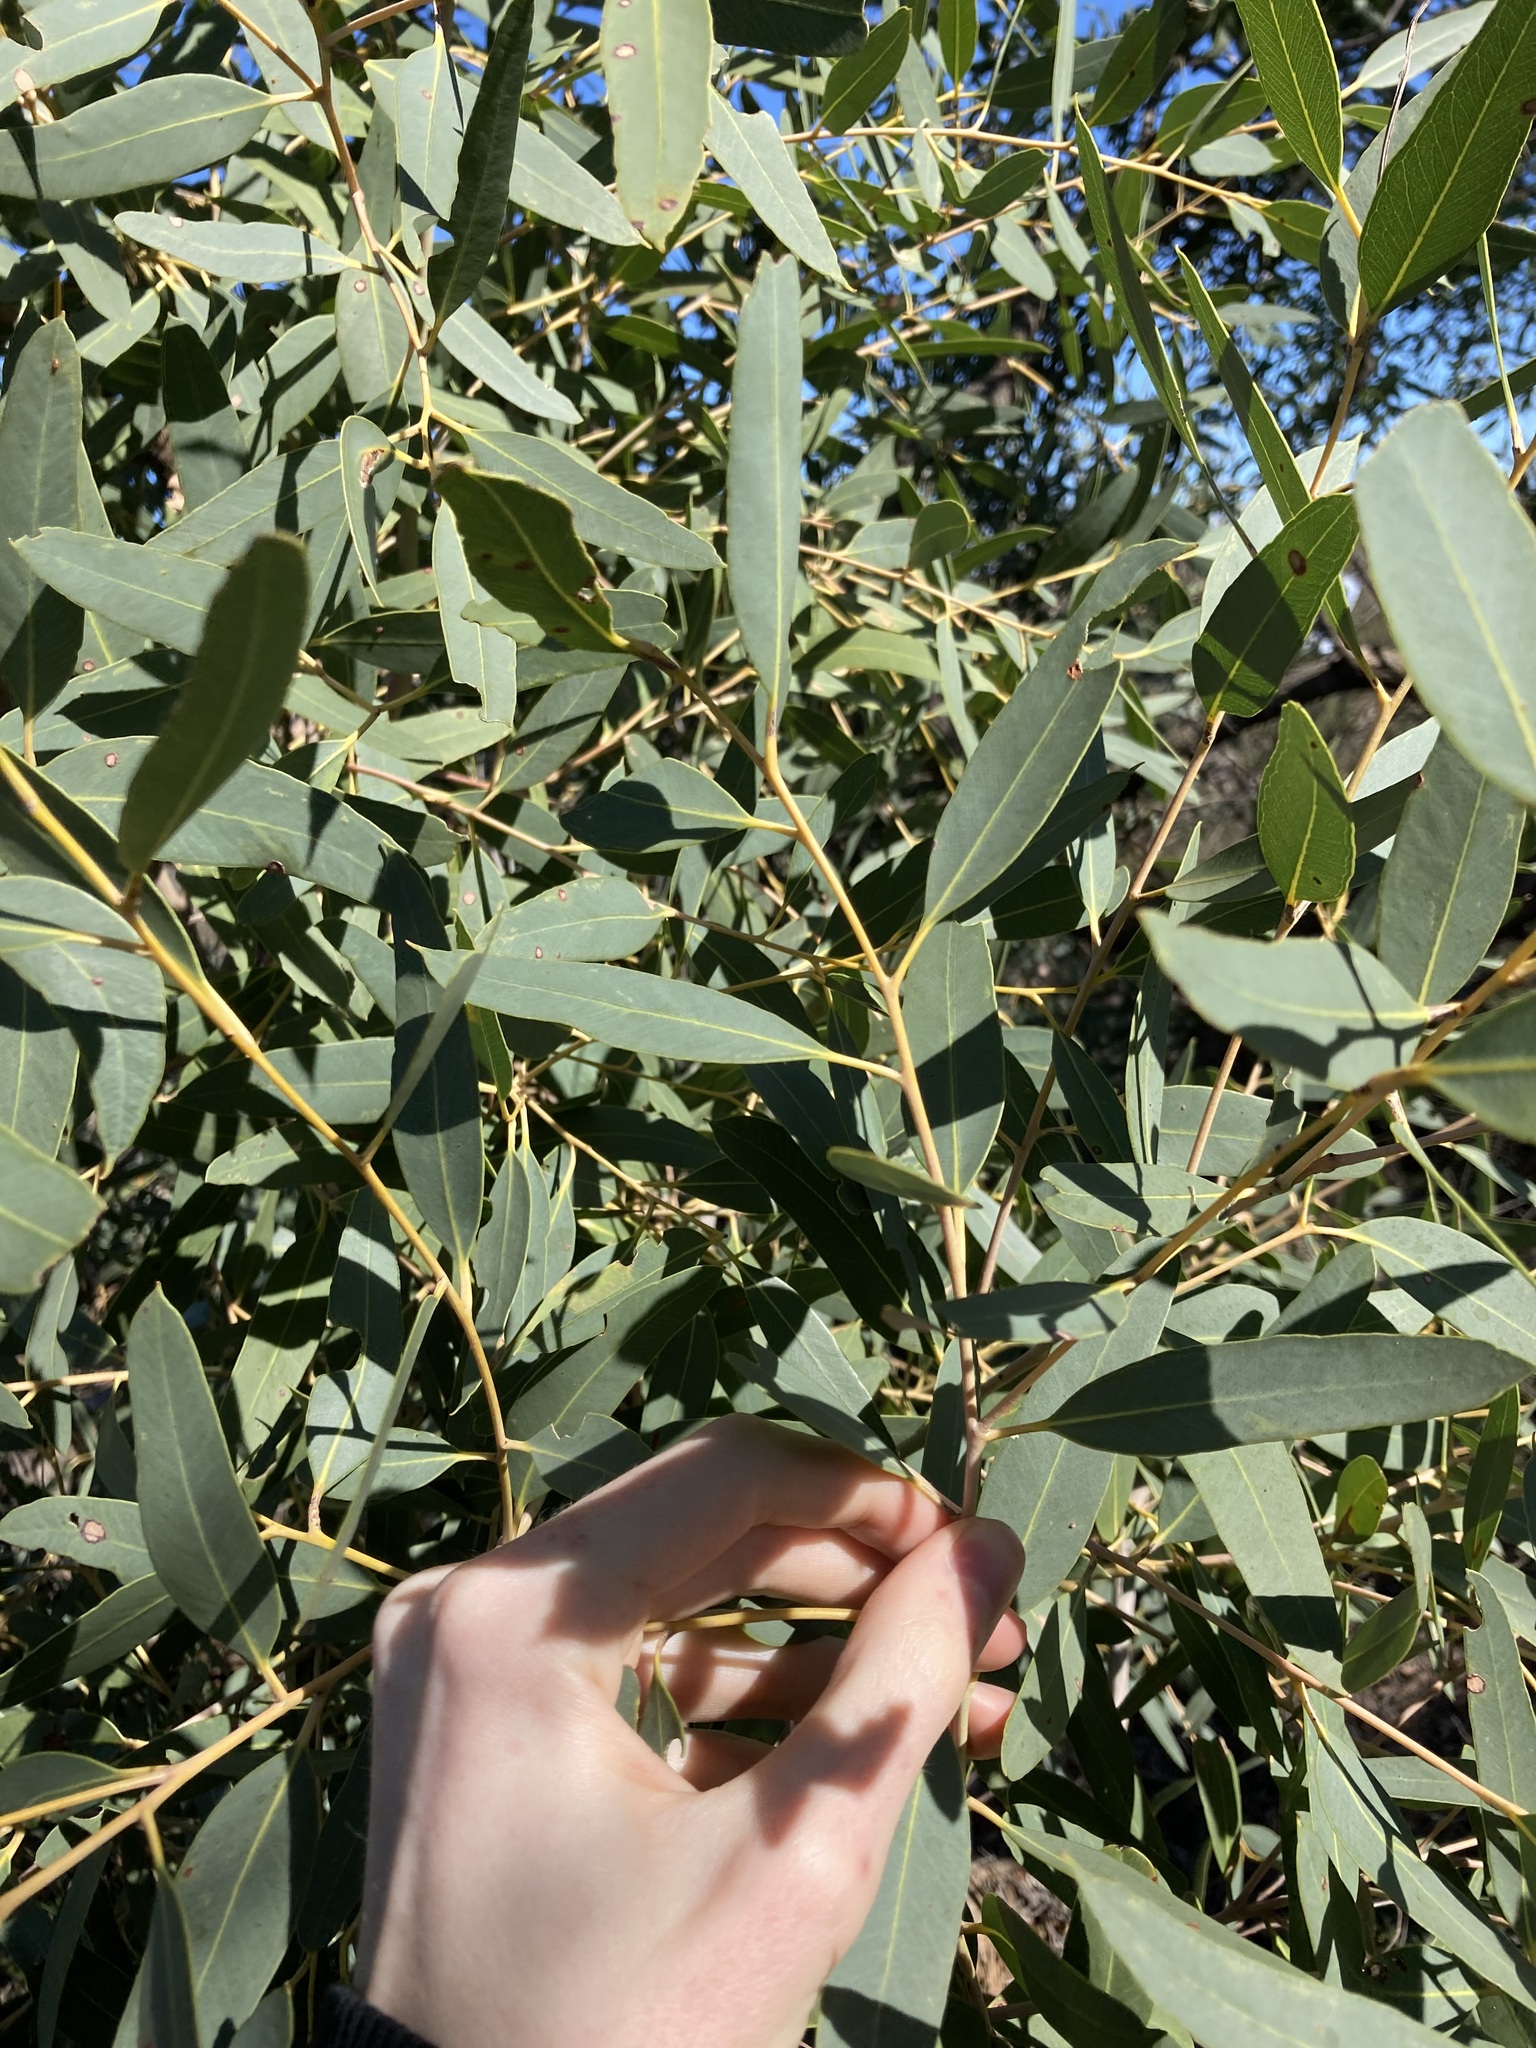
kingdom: Plantae
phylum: Tracheophyta
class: Magnoliopsida
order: Myrtales
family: Myrtaceae
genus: Eucalyptus
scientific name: Eucalyptus todtiana
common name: Coastal blackbutt
